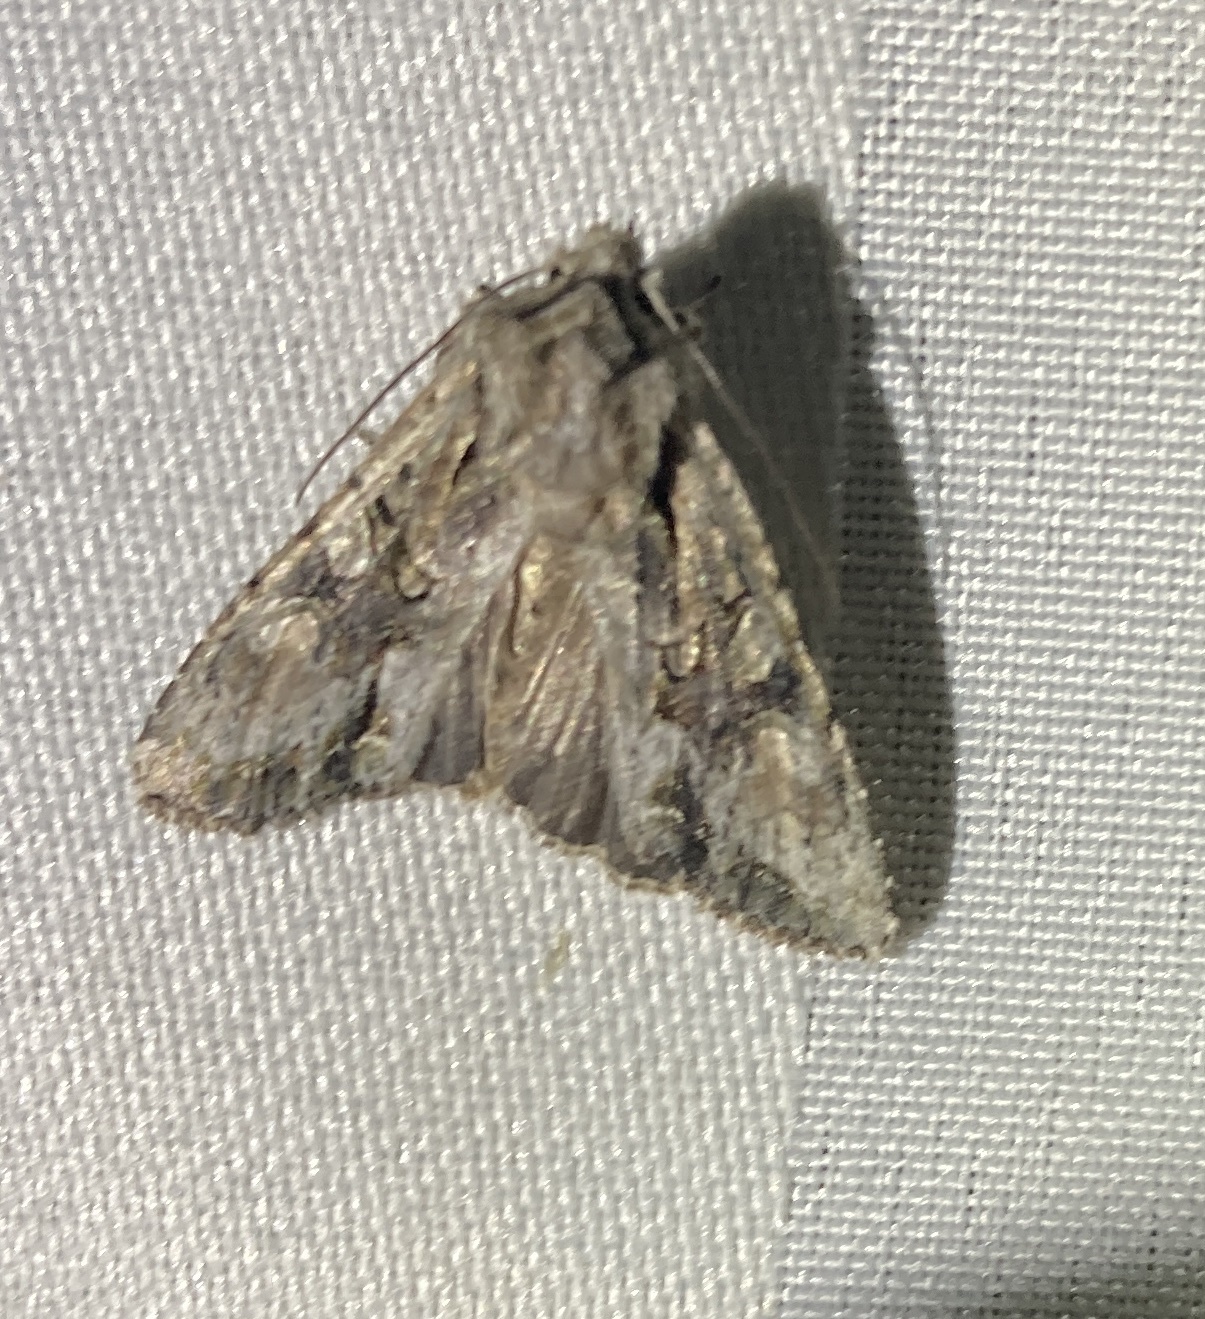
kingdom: Animalia
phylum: Arthropoda
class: Insecta
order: Lepidoptera
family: Noctuidae
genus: Ichneutica
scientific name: Ichneutica mutans
